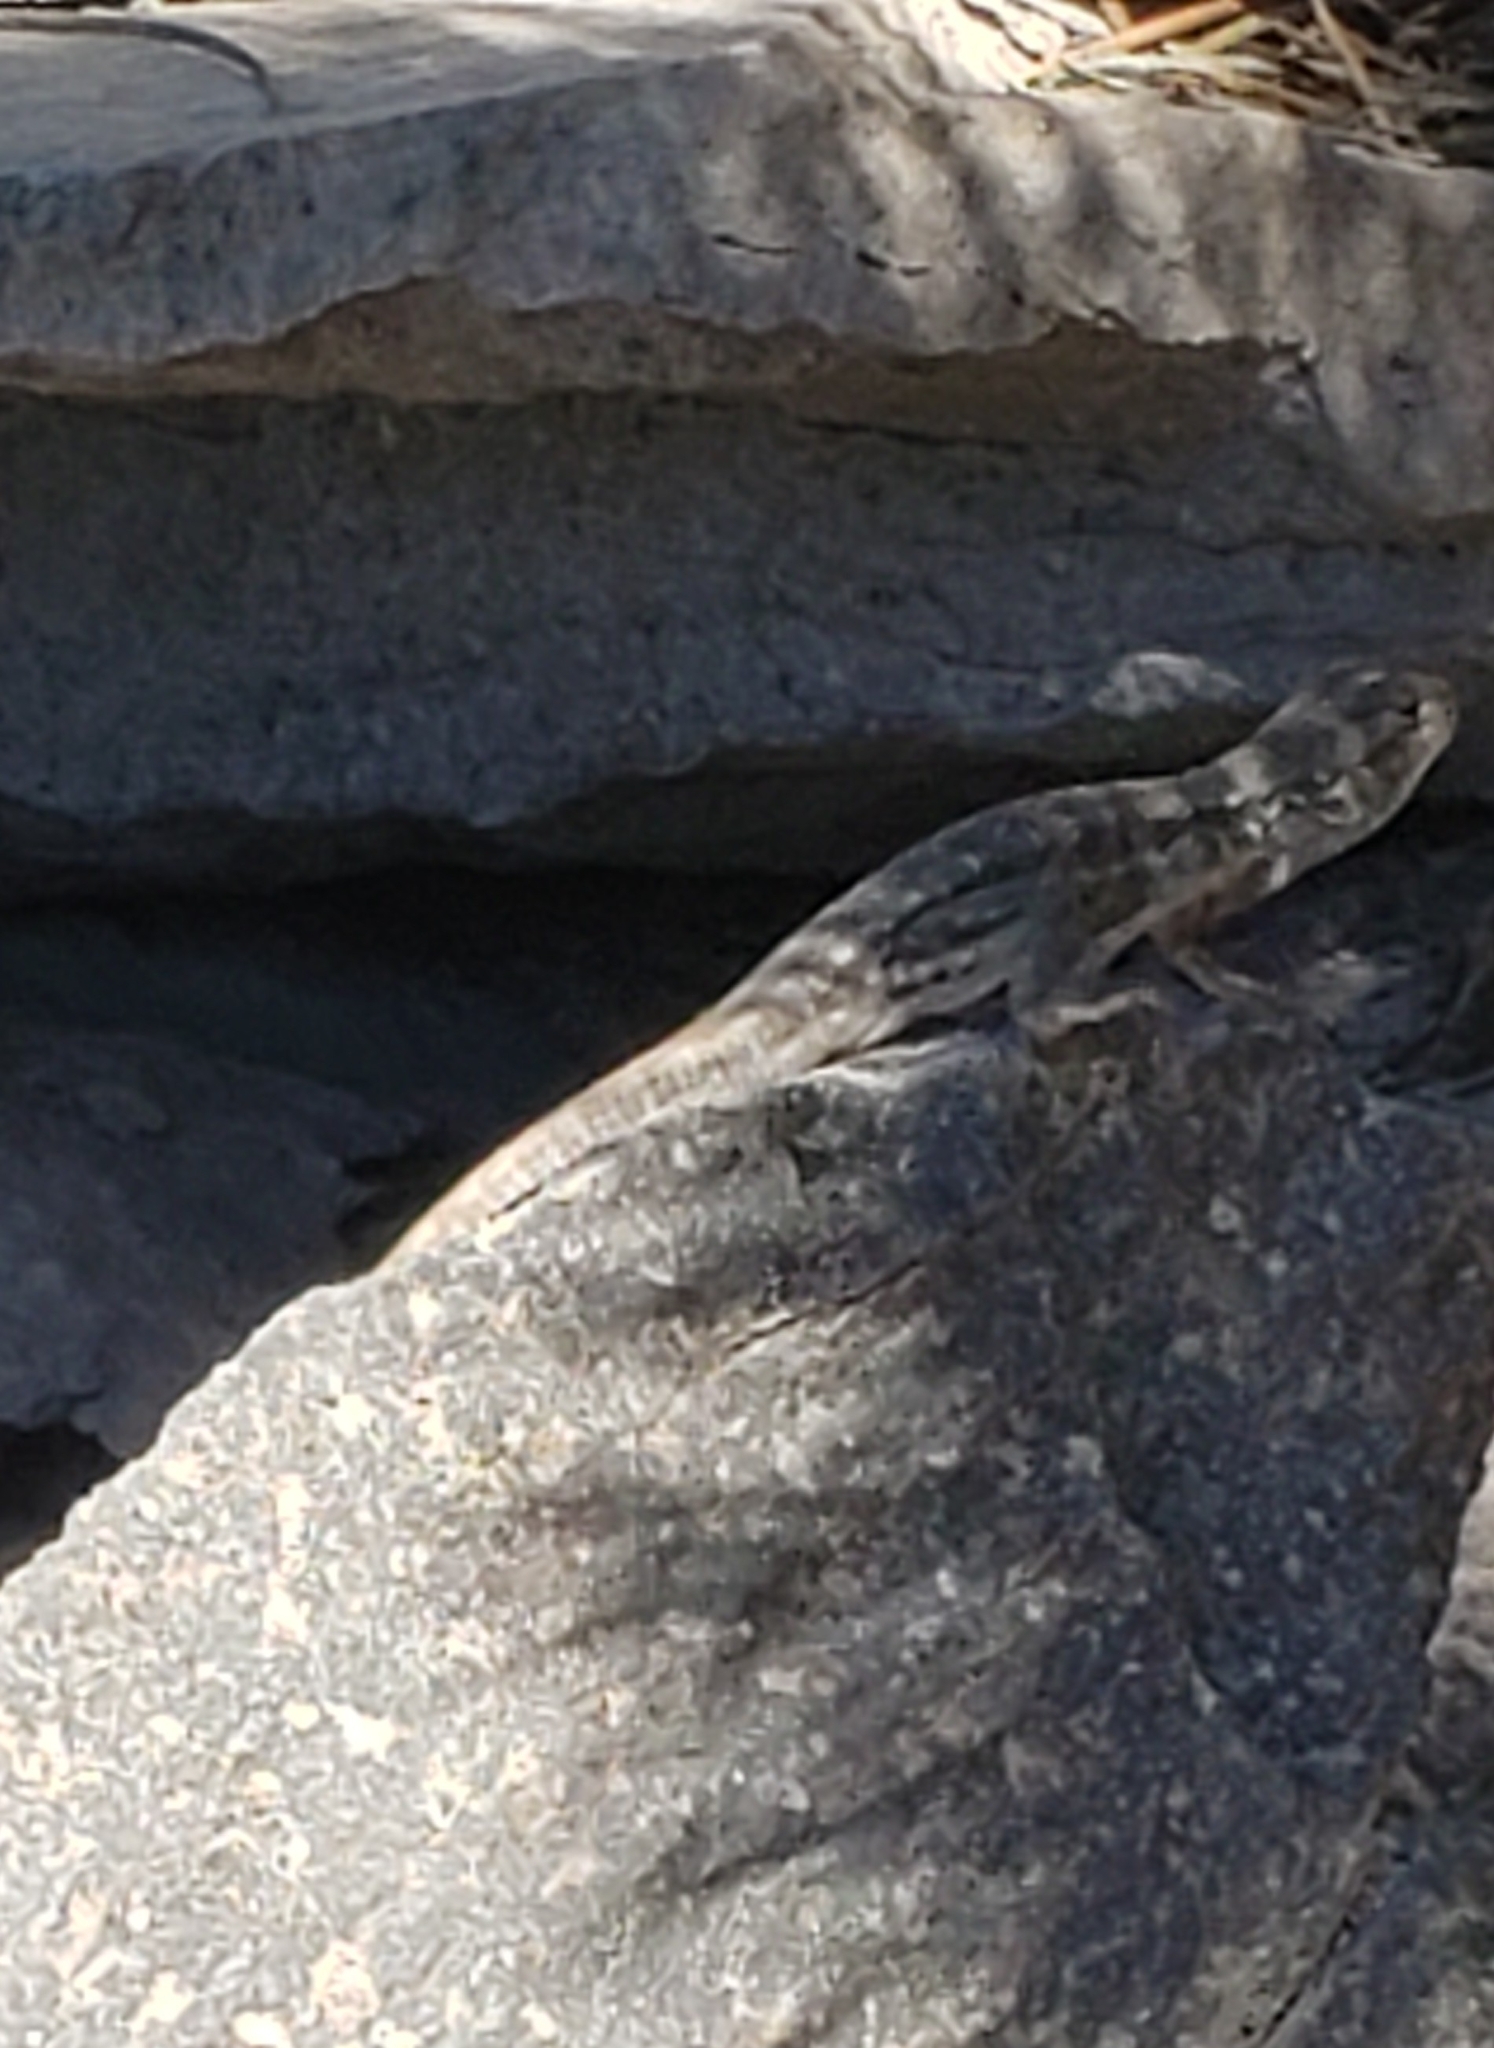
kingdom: Animalia
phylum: Chordata
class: Squamata
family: Phrynosomatidae
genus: Sceloporus
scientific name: Sceloporus graciosus
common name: Sagebrush lizard
